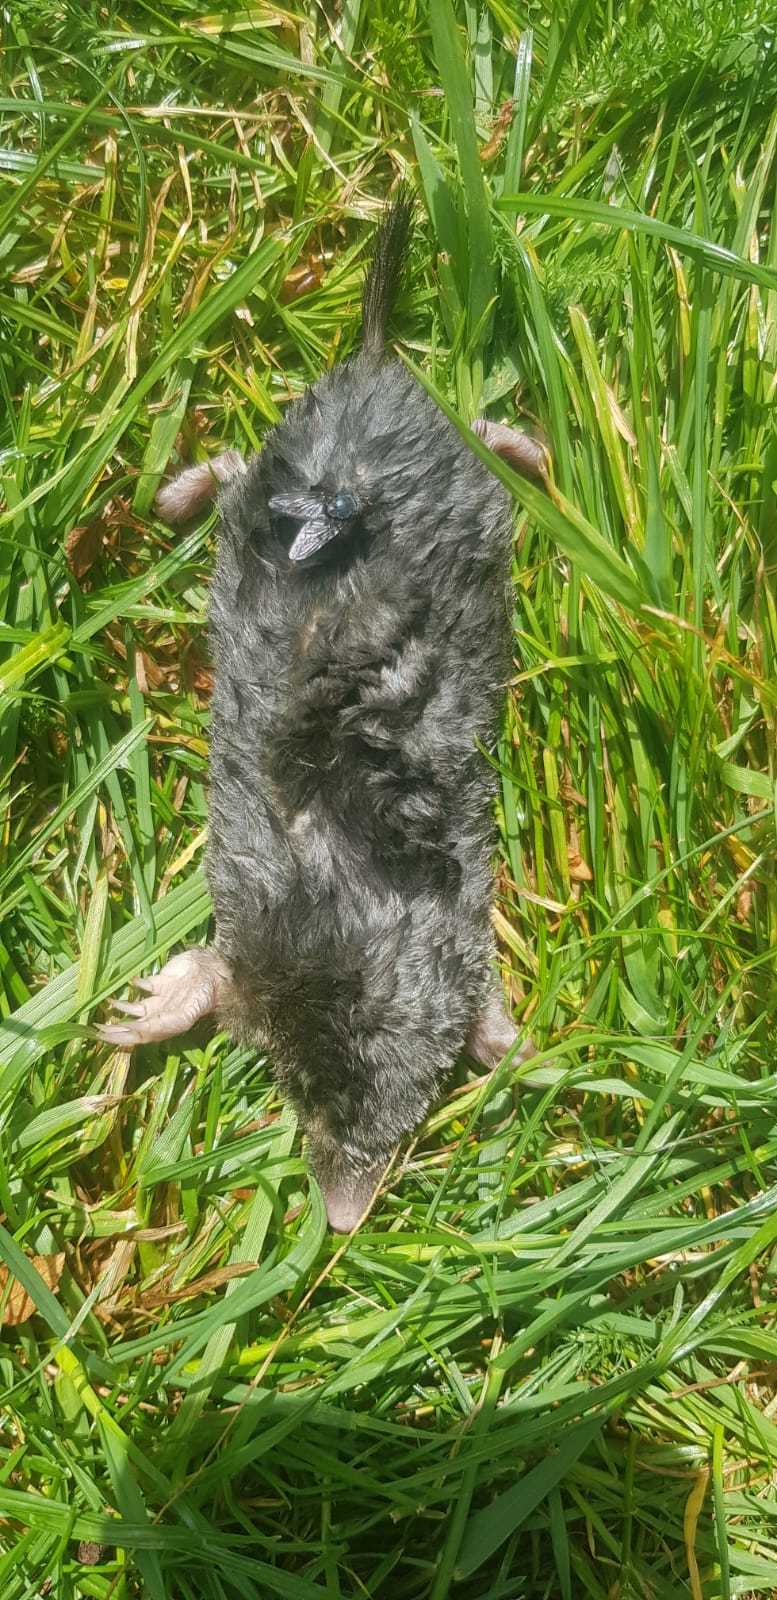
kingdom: Animalia
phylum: Chordata
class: Mammalia
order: Soricomorpha
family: Talpidae
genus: Talpa
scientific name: Talpa europaea
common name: European mole
